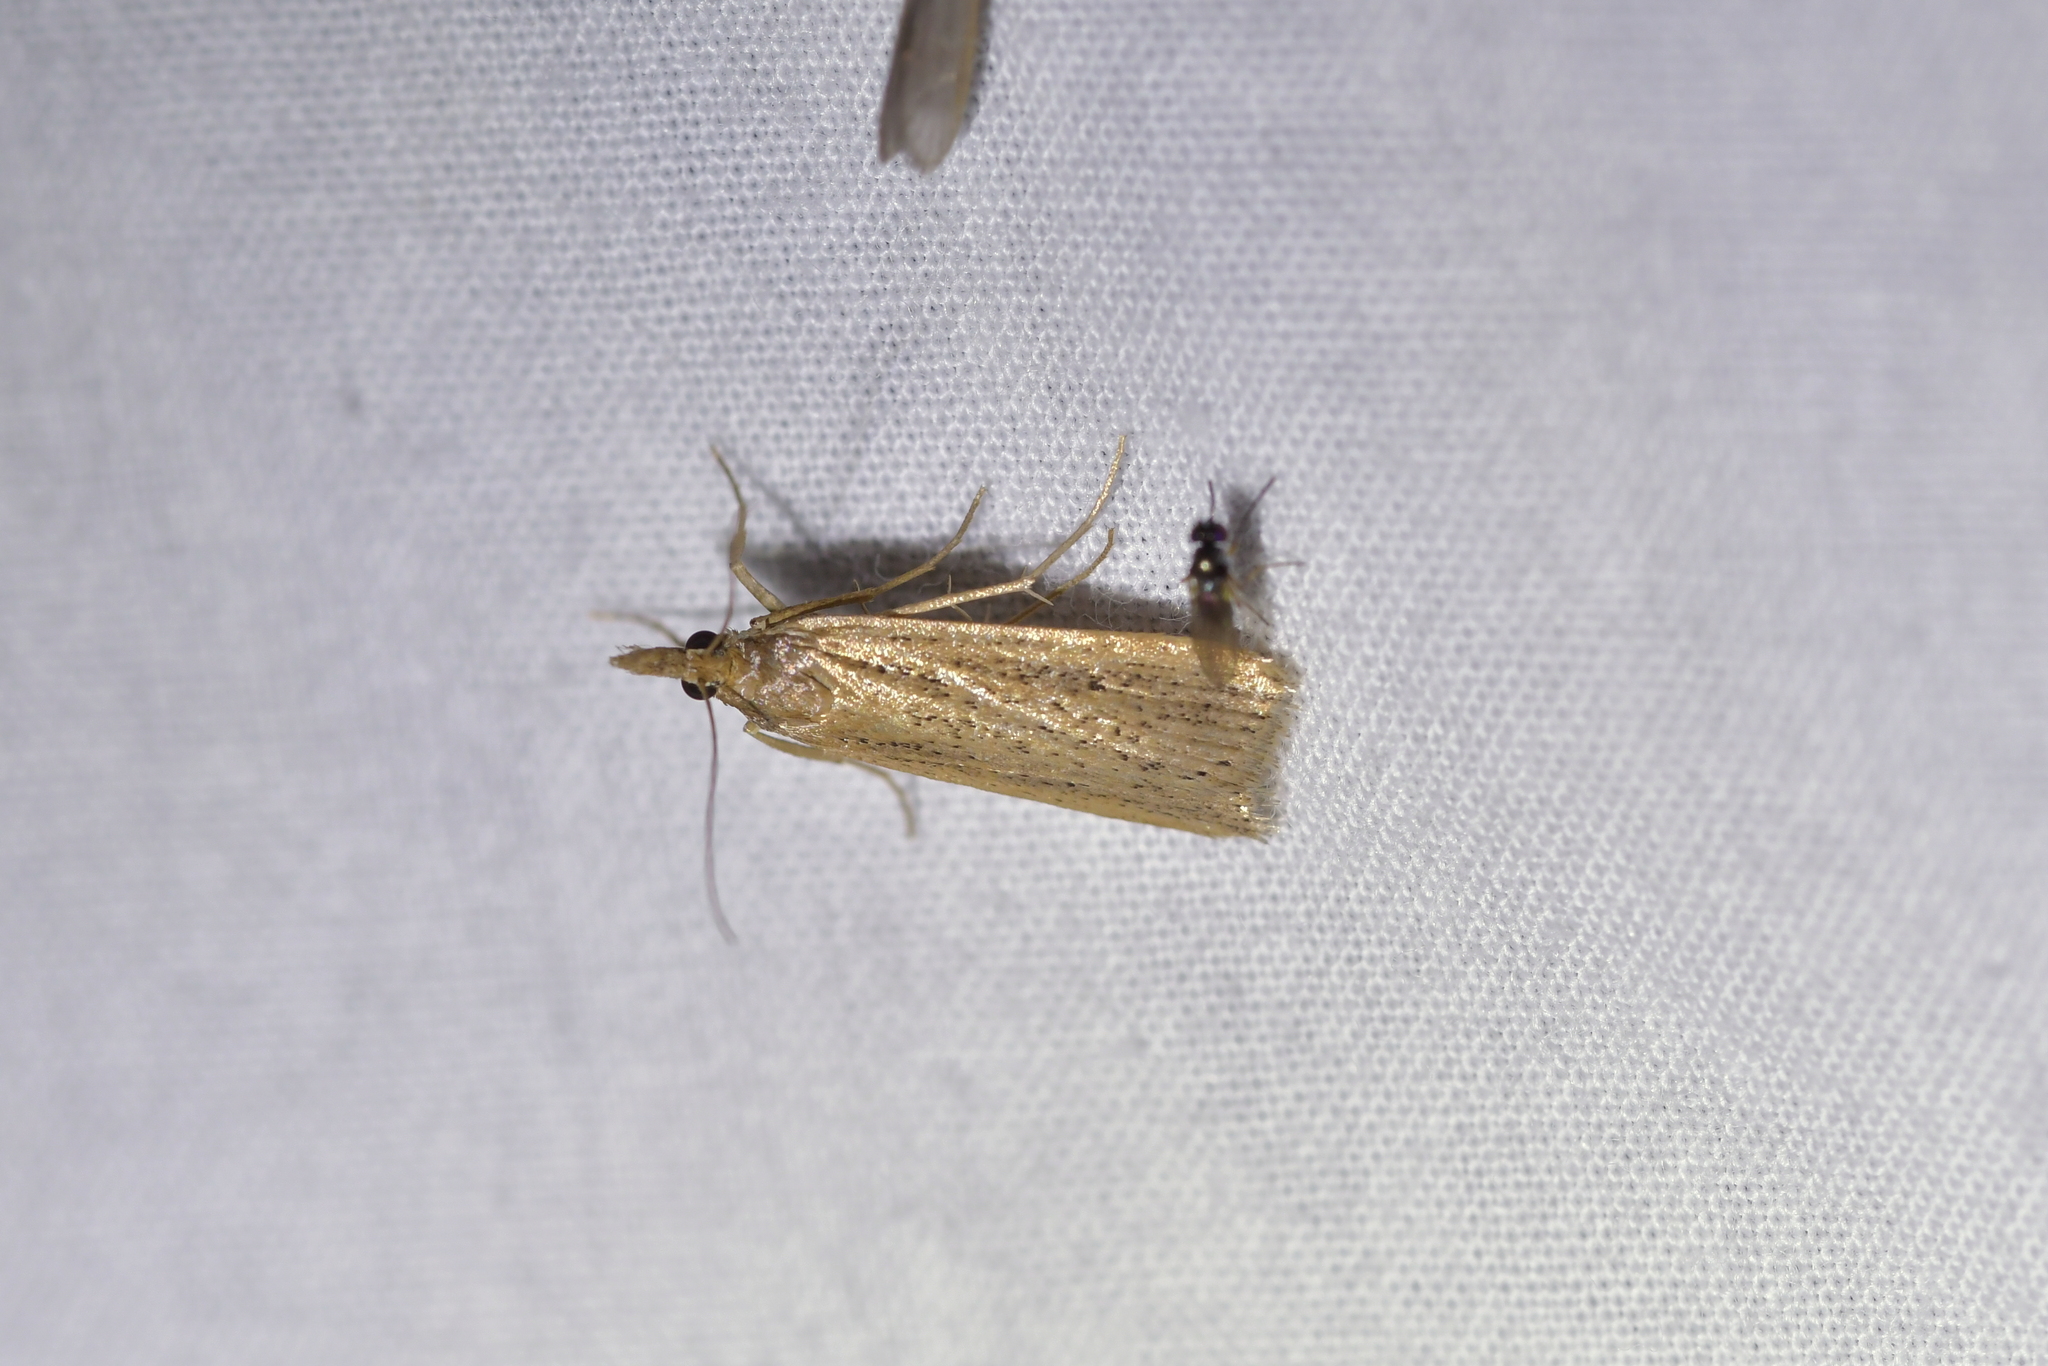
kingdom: Animalia
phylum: Arthropoda
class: Insecta
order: Lepidoptera
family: Crambidae
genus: Eudonia
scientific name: Eudonia sabulosella
